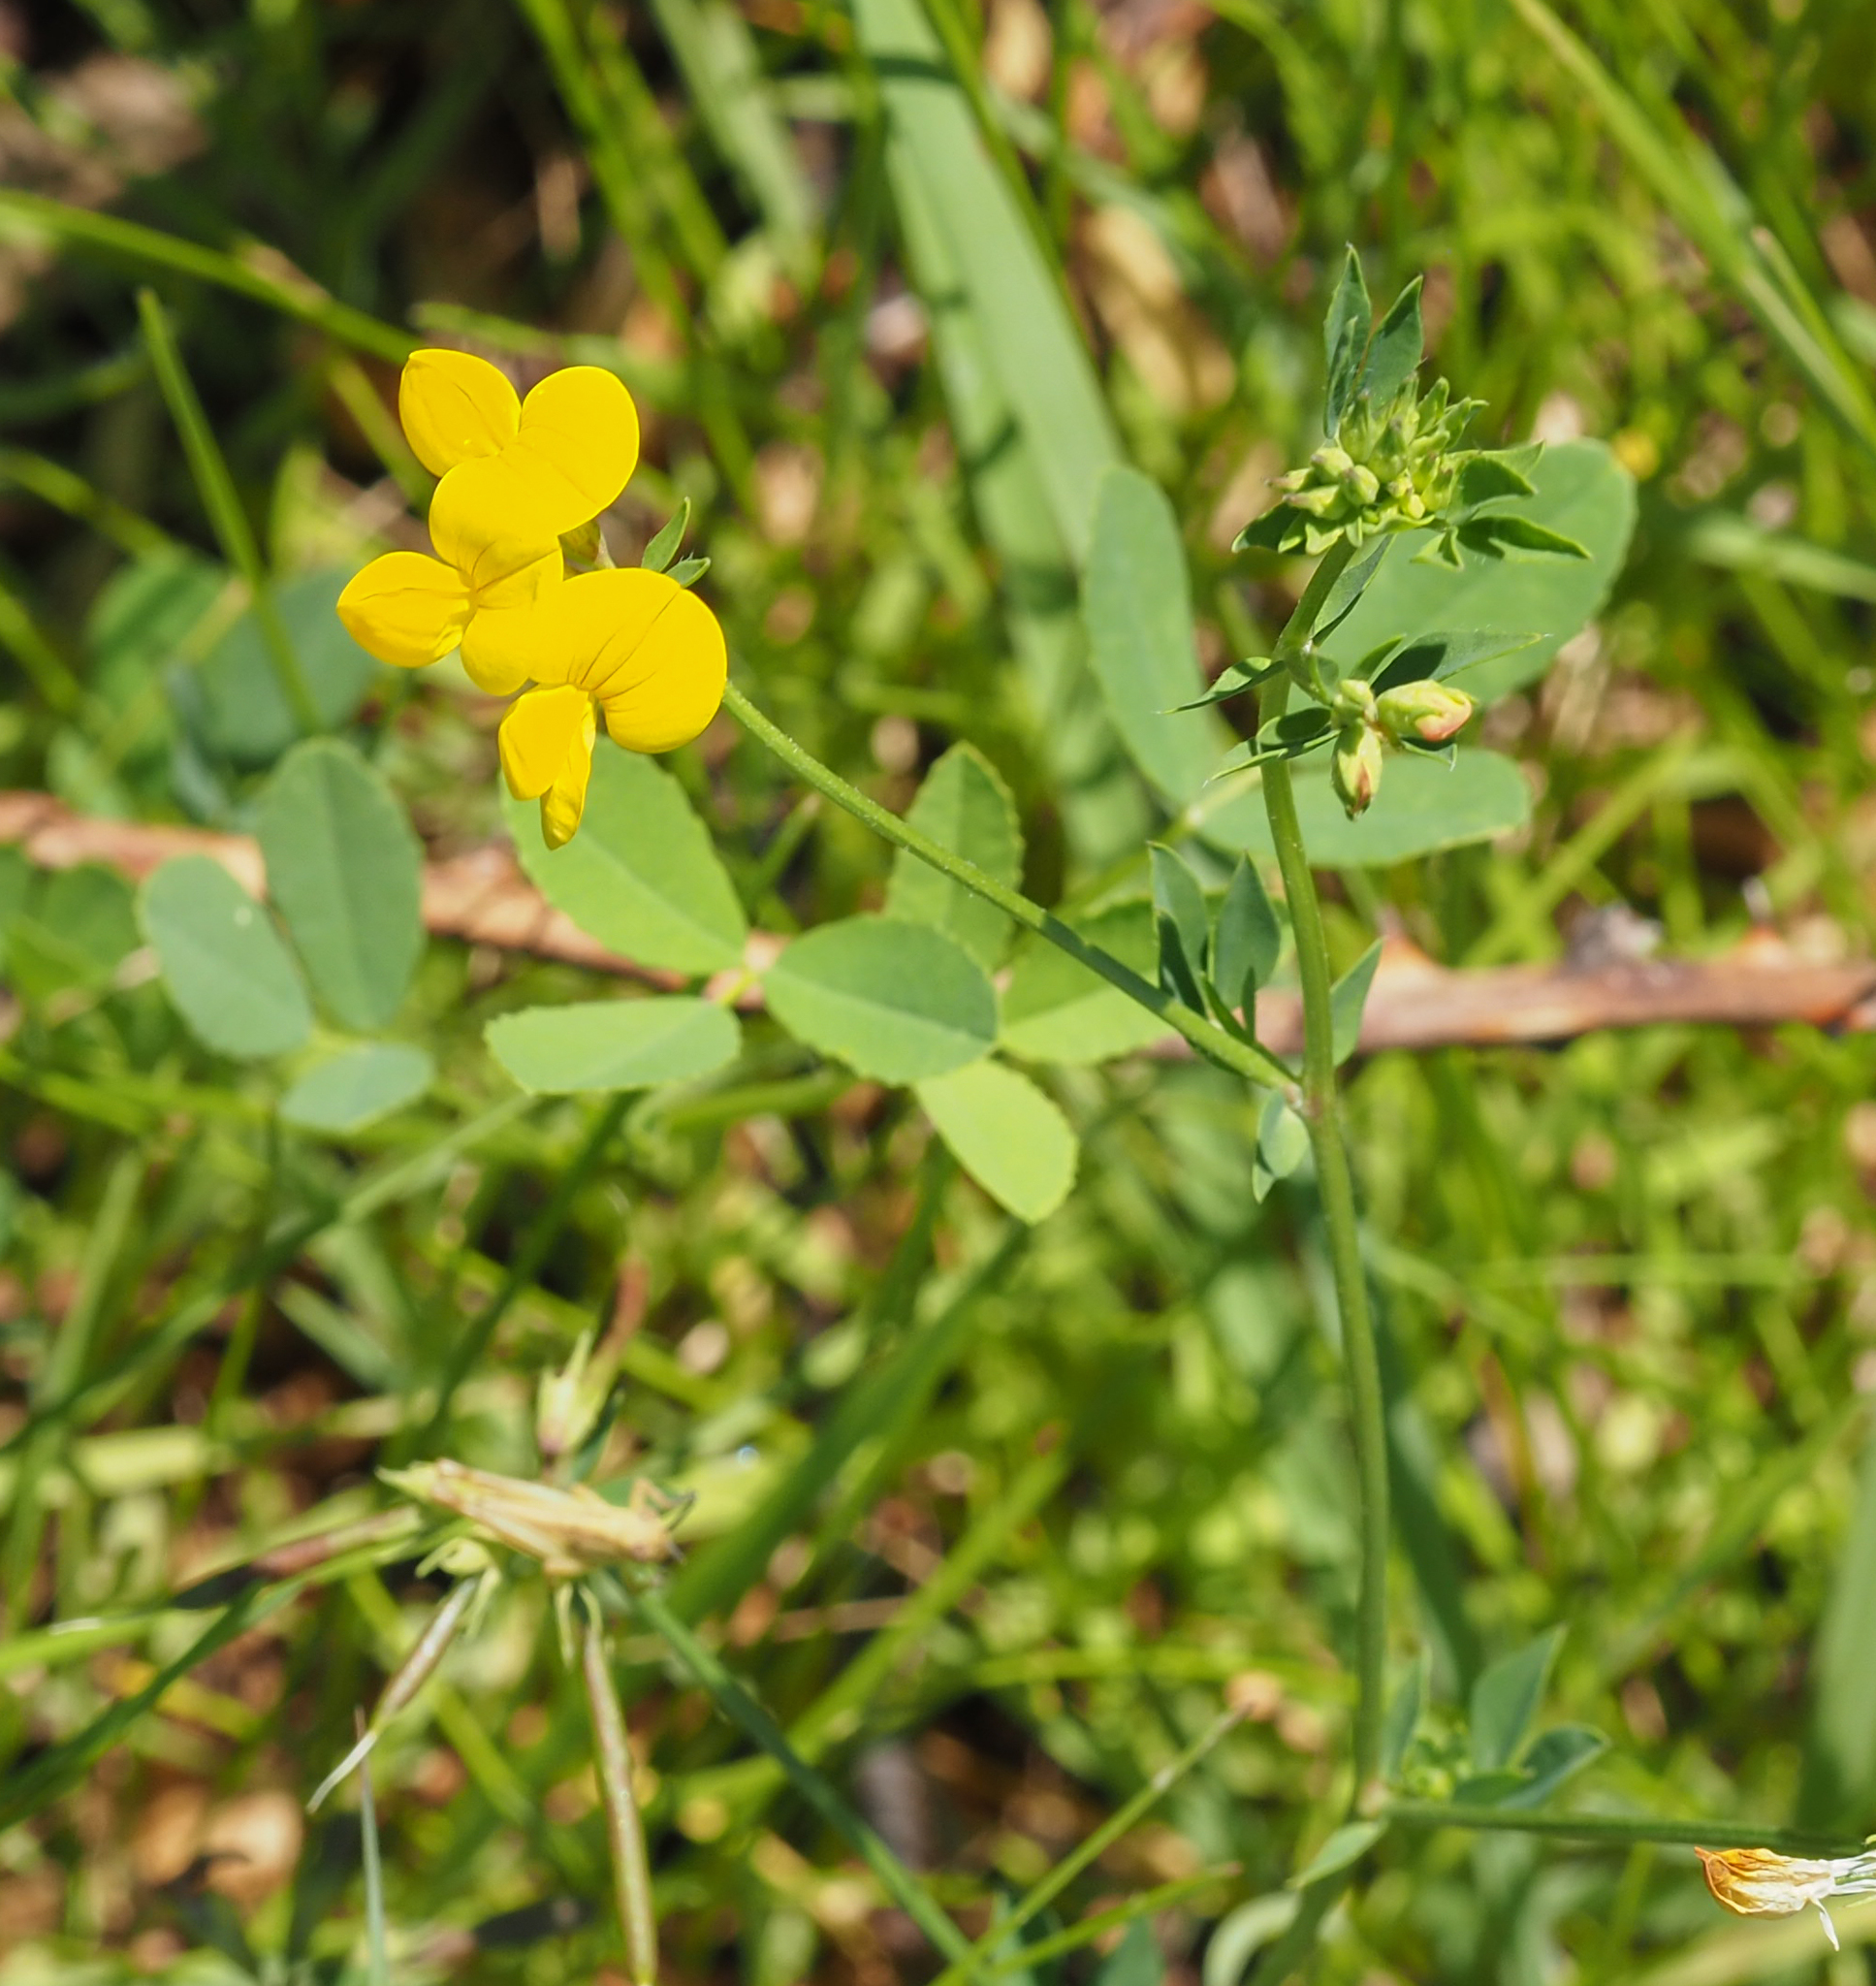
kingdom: Plantae
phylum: Tracheophyta
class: Magnoliopsida
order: Fabales
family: Fabaceae
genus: Lotus
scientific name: Lotus corniculatus
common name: Common bird's-foot-trefoil
